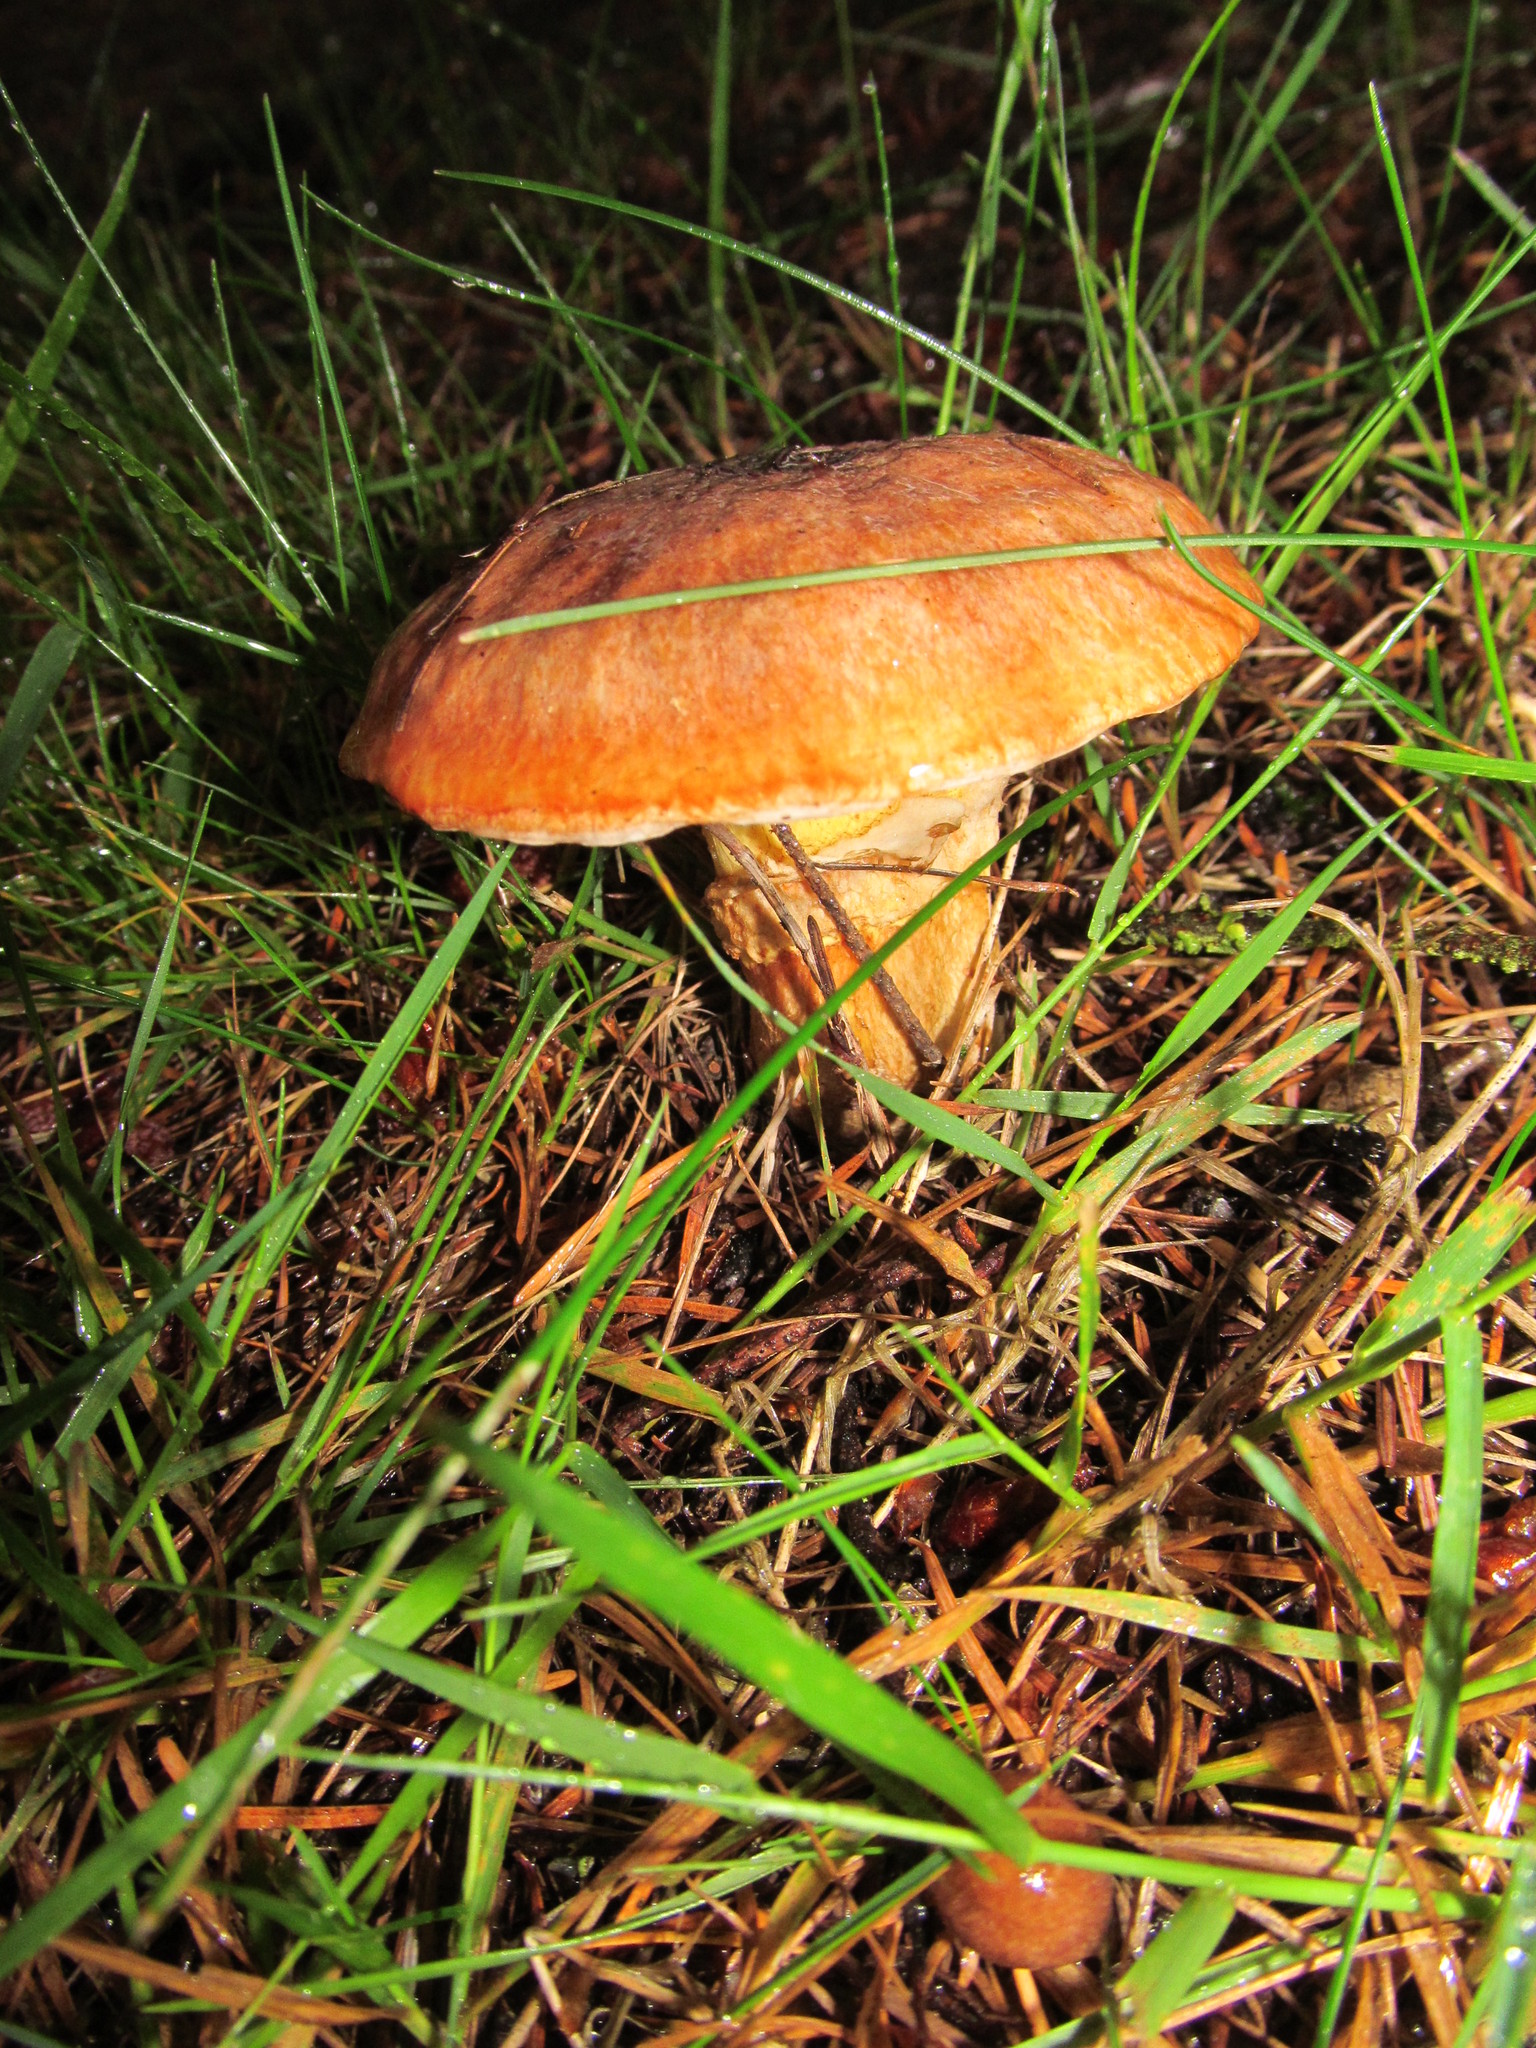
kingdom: Fungi
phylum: Basidiomycota
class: Agaricomycetes
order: Boletales
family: Suillaceae
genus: Suillus
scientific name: Suillus caerulescens
